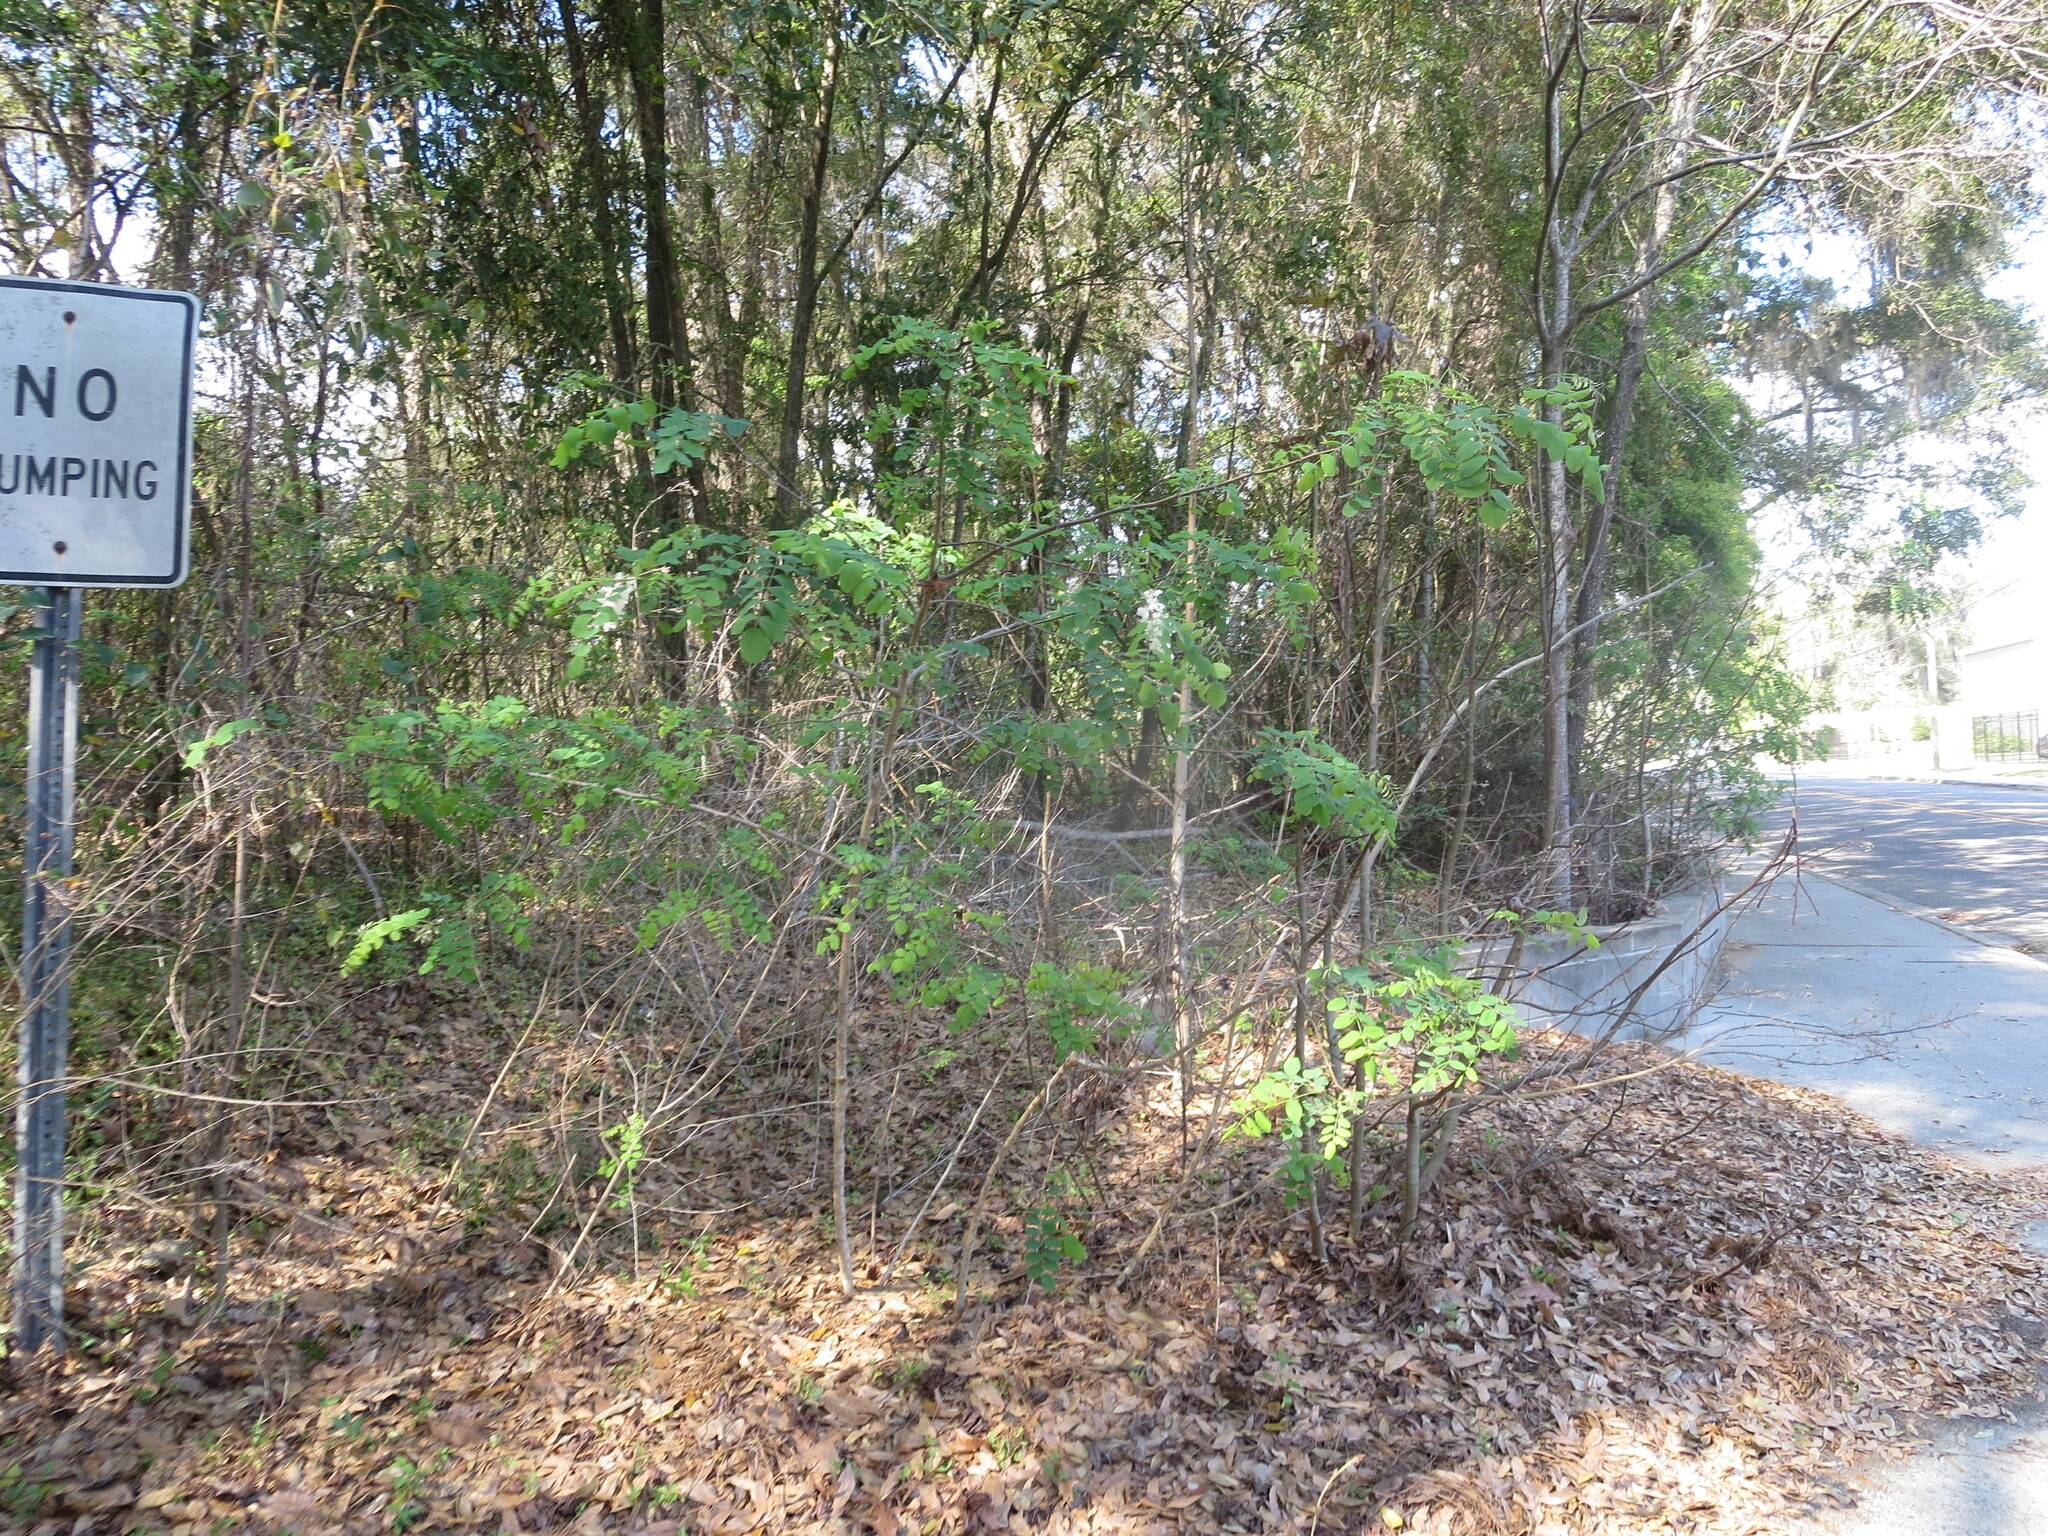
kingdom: Plantae
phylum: Tracheophyta
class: Magnoliopsida
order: Fabales
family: Fabaceae
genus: Robinia
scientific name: Robinia pseudoacacia
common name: Black locust
